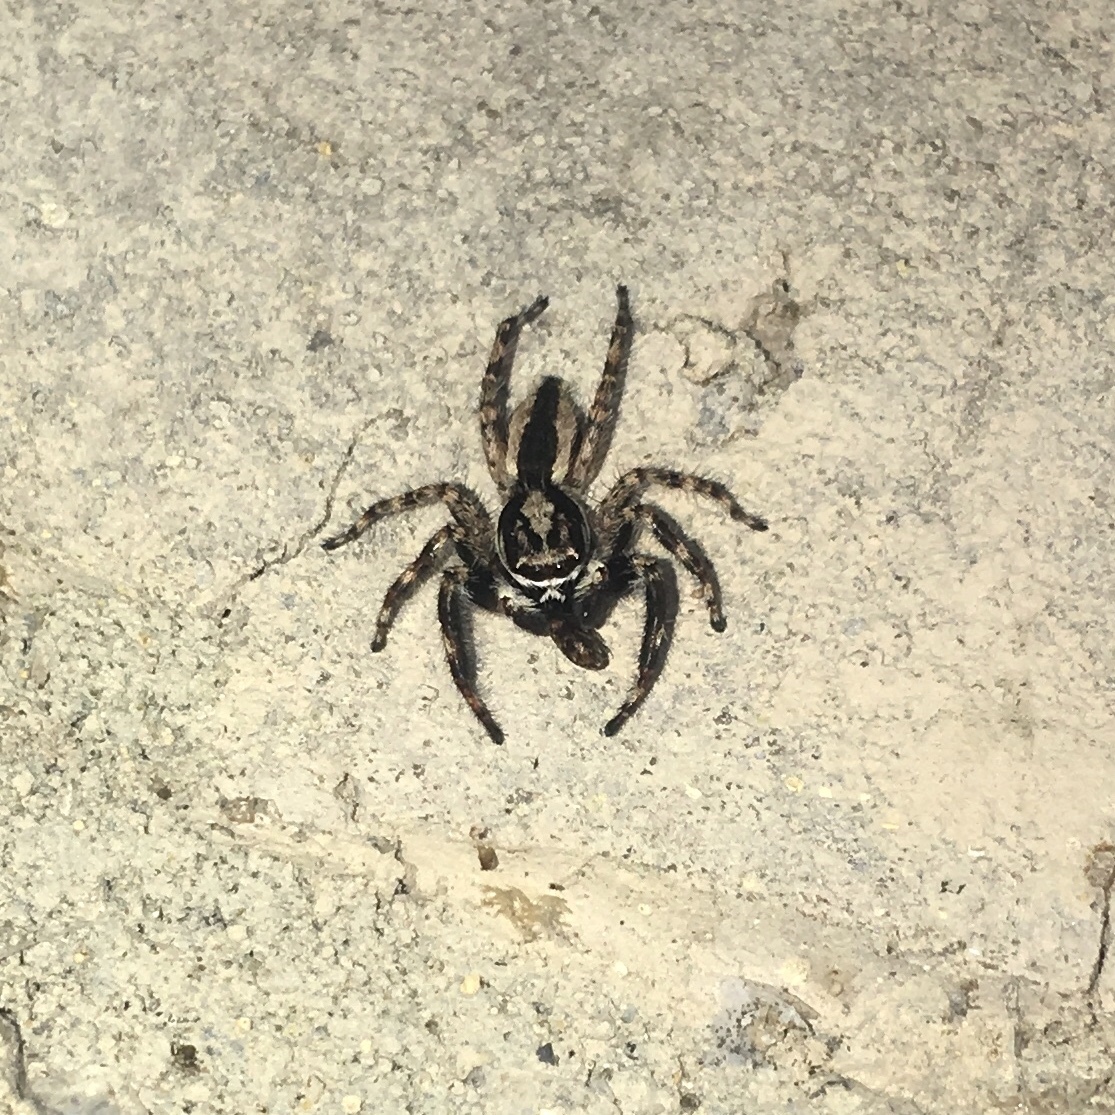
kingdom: Animalia
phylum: Arthropoda
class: Arachnida
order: Araneae
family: Salticidae
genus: Menemerus
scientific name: Menemerus bivittatus
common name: Gray wall jumper
